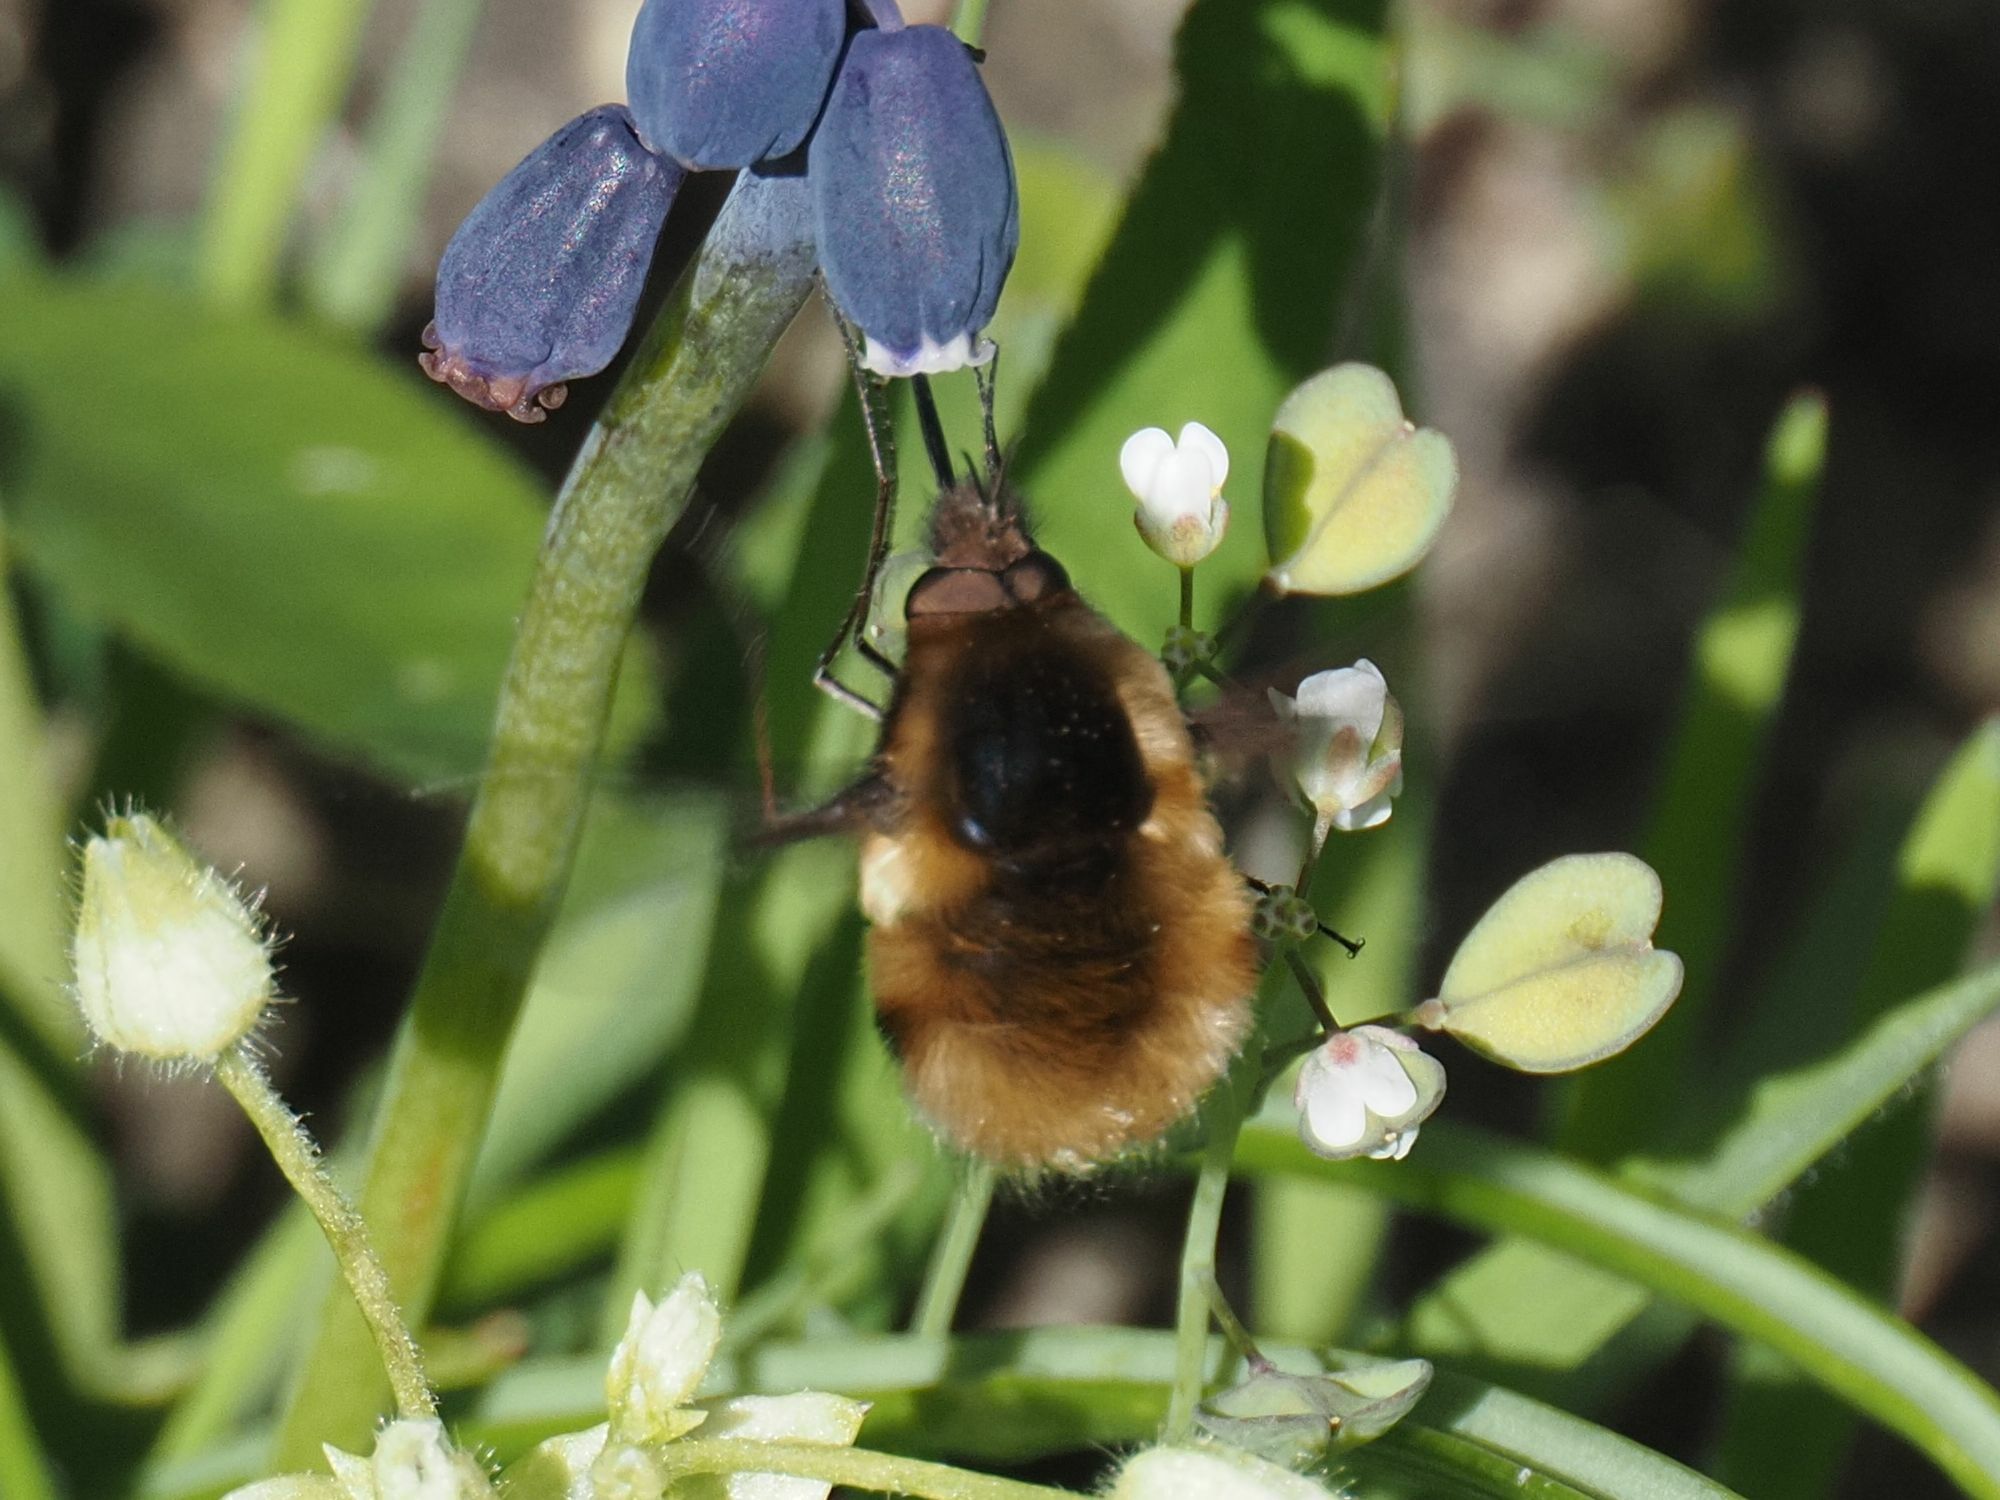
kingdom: Animalia
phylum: Arthropoda
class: Insecta
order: Diptera
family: Bombyliidae
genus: Bombylius
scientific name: Bombylius major
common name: Bee fly
